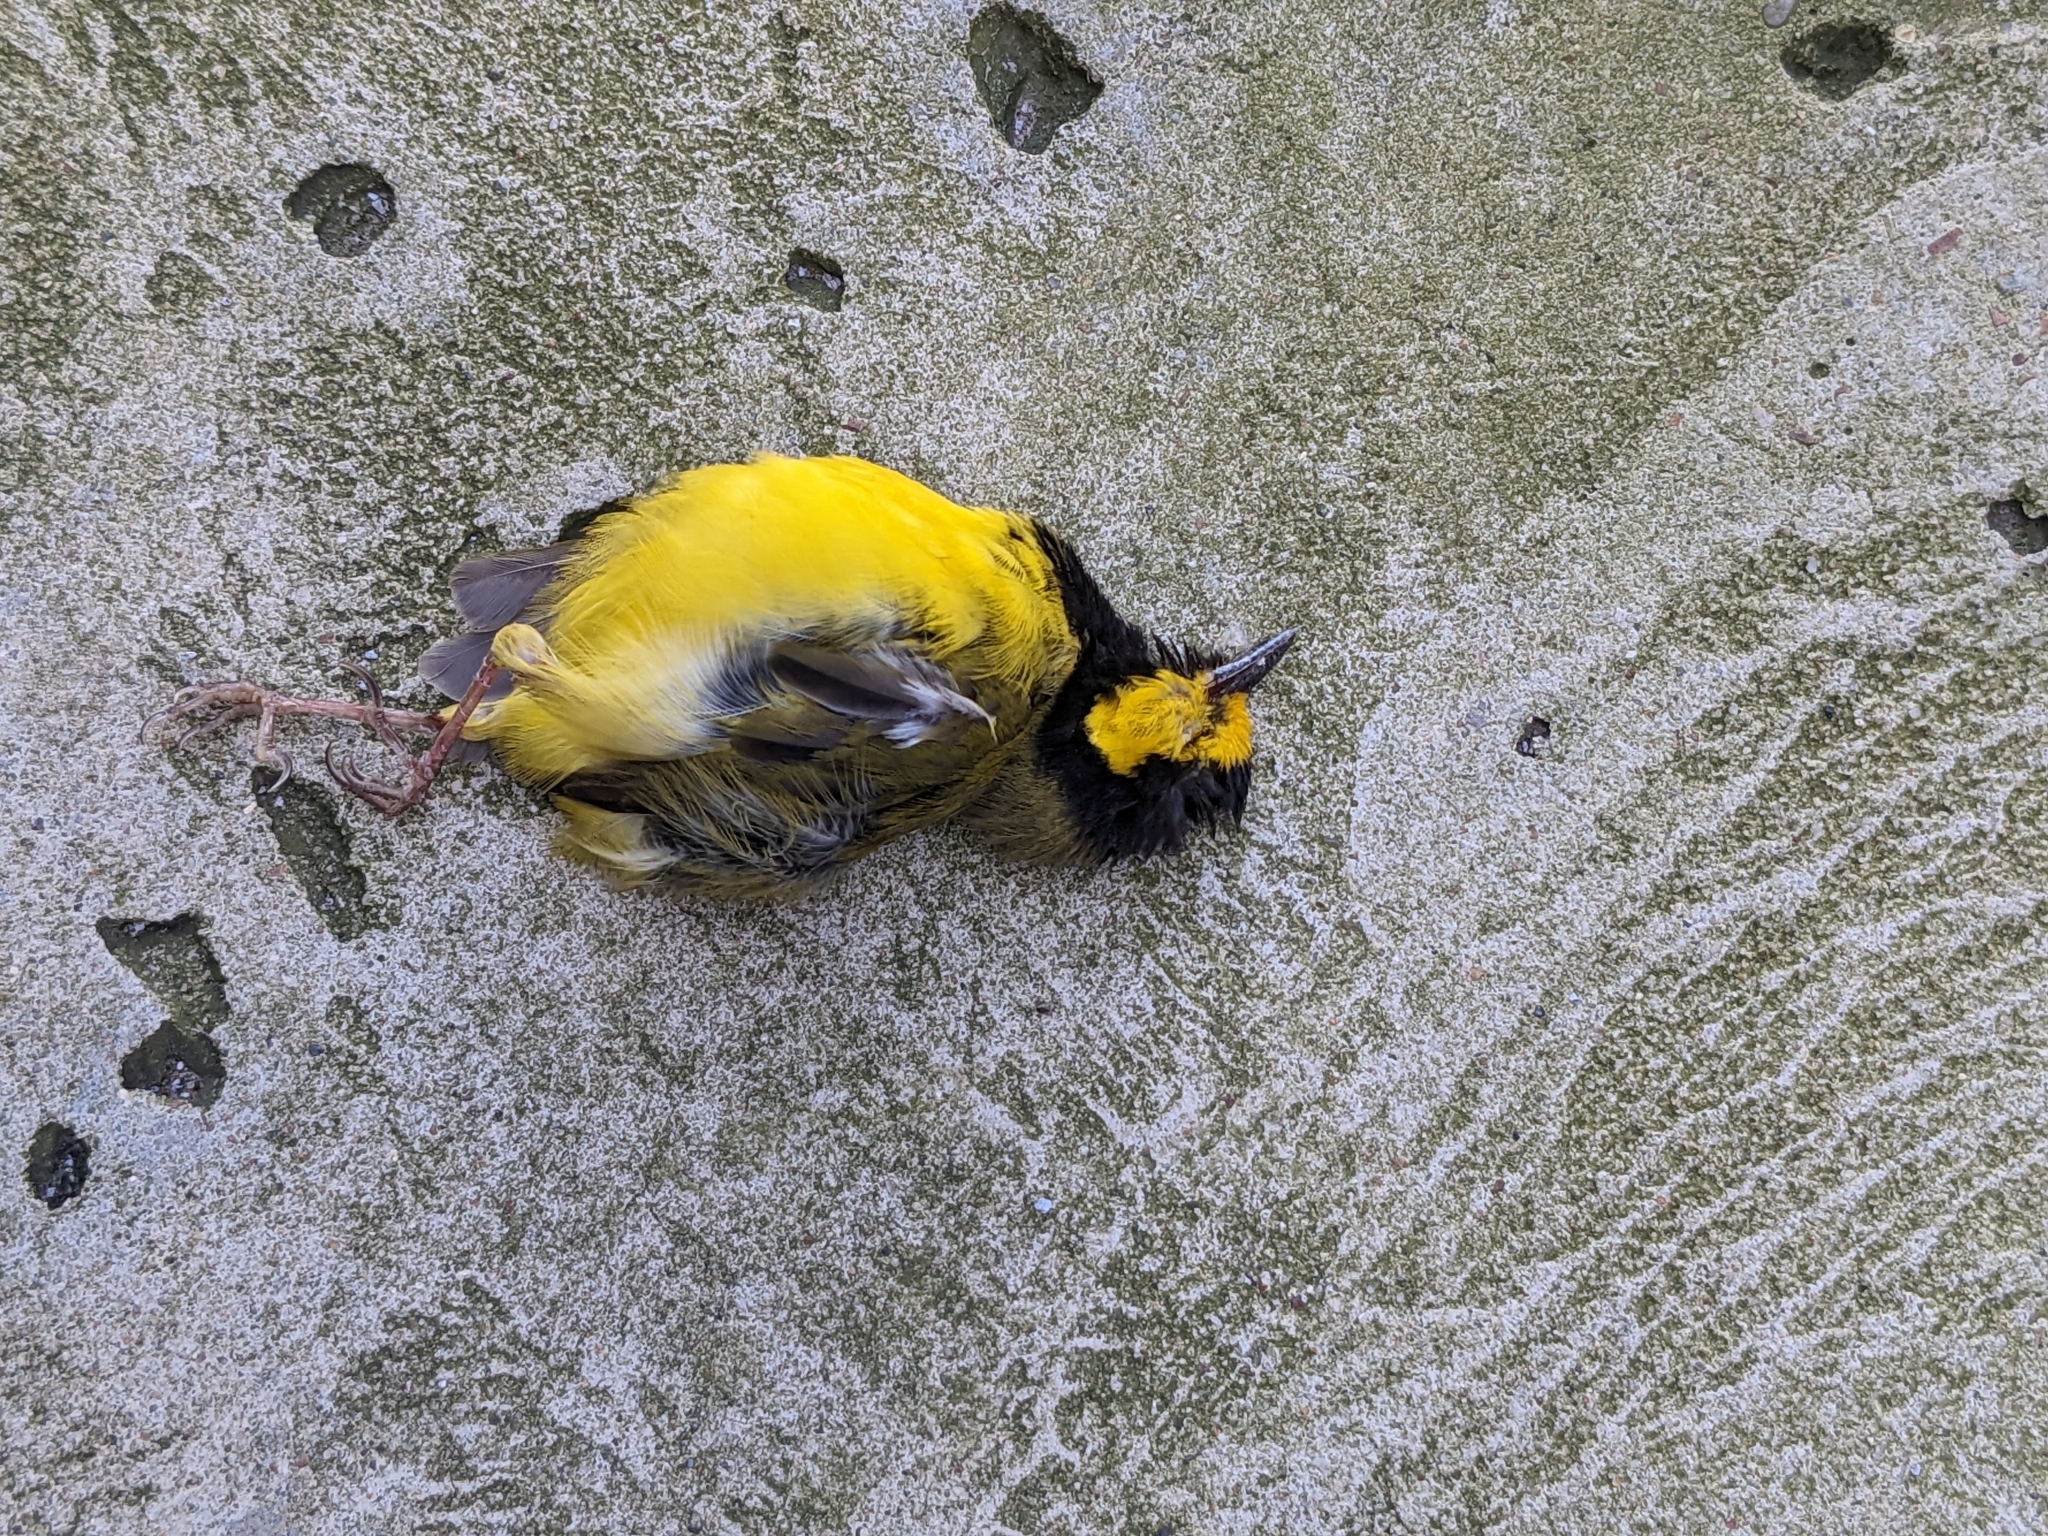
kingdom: Animalia
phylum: Chordata
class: Aves
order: Passeriformes
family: Parulidae
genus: Setophaga
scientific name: Setophaga citrina
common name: Hooded warbler
